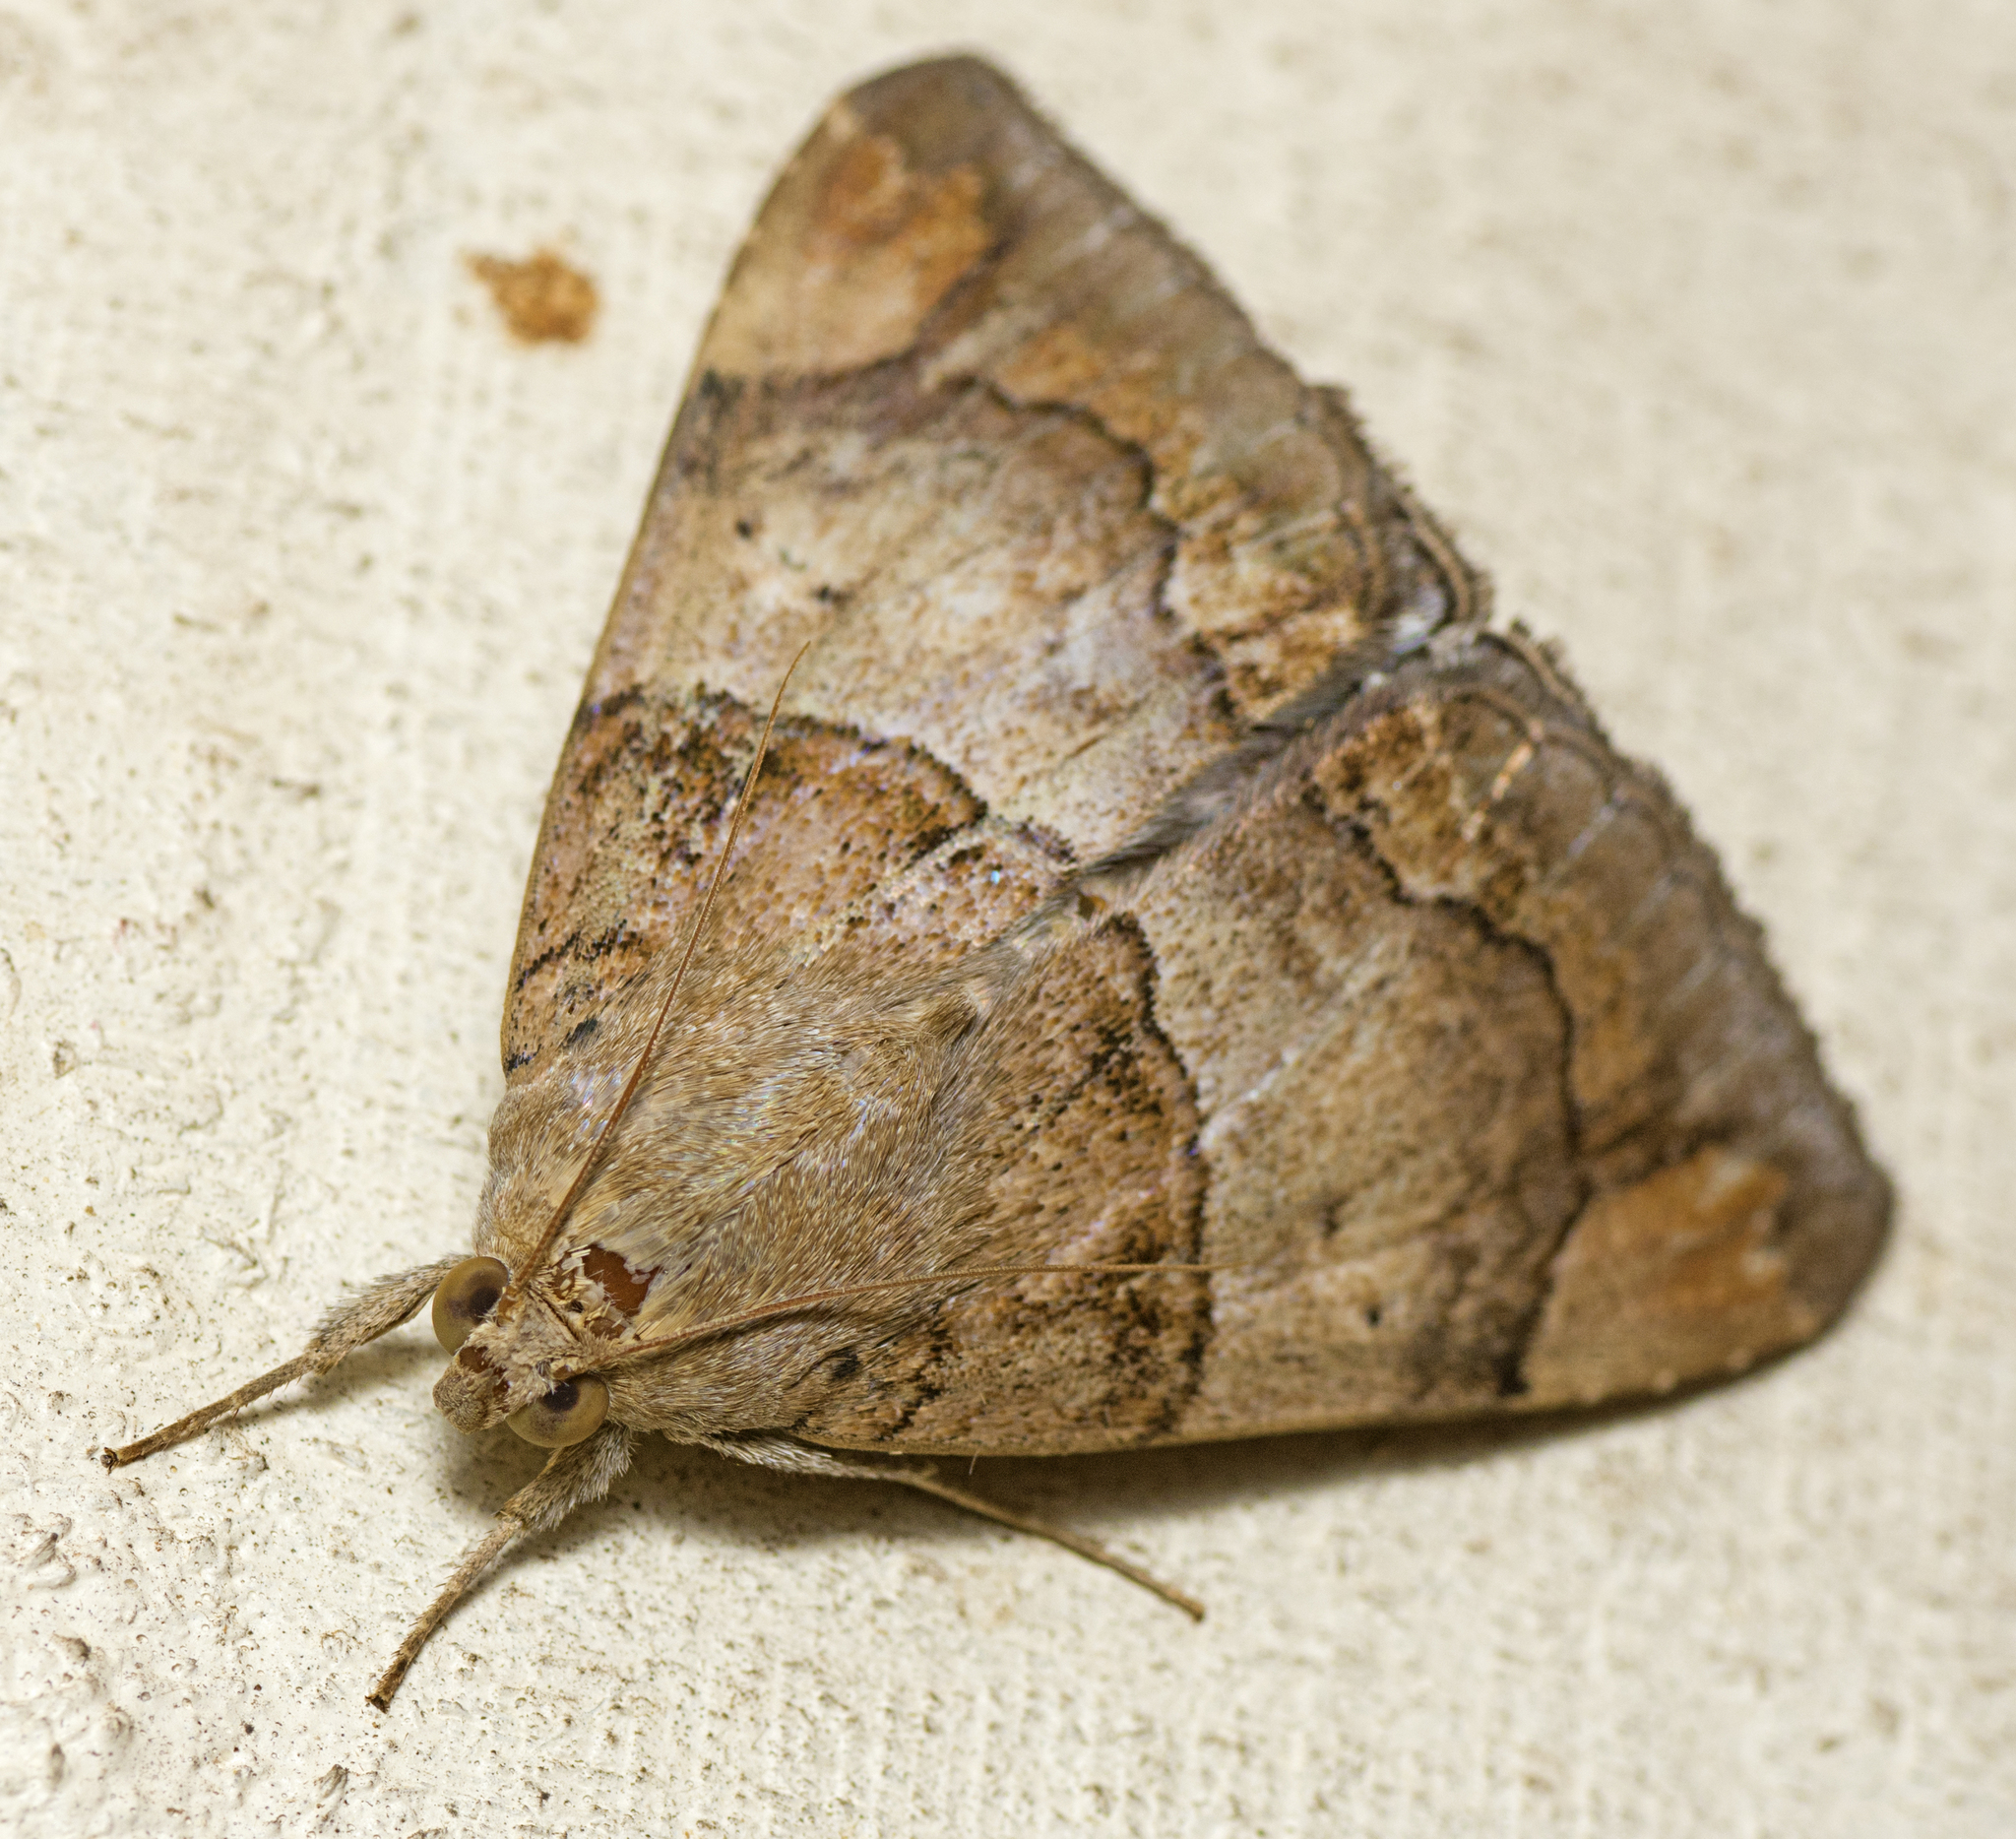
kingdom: Animalia
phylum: Arthropoda
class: Insecta
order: Lepidoptera
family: Erebidae
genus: Achaea
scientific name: Achaea janata
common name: Croton caterpillar
